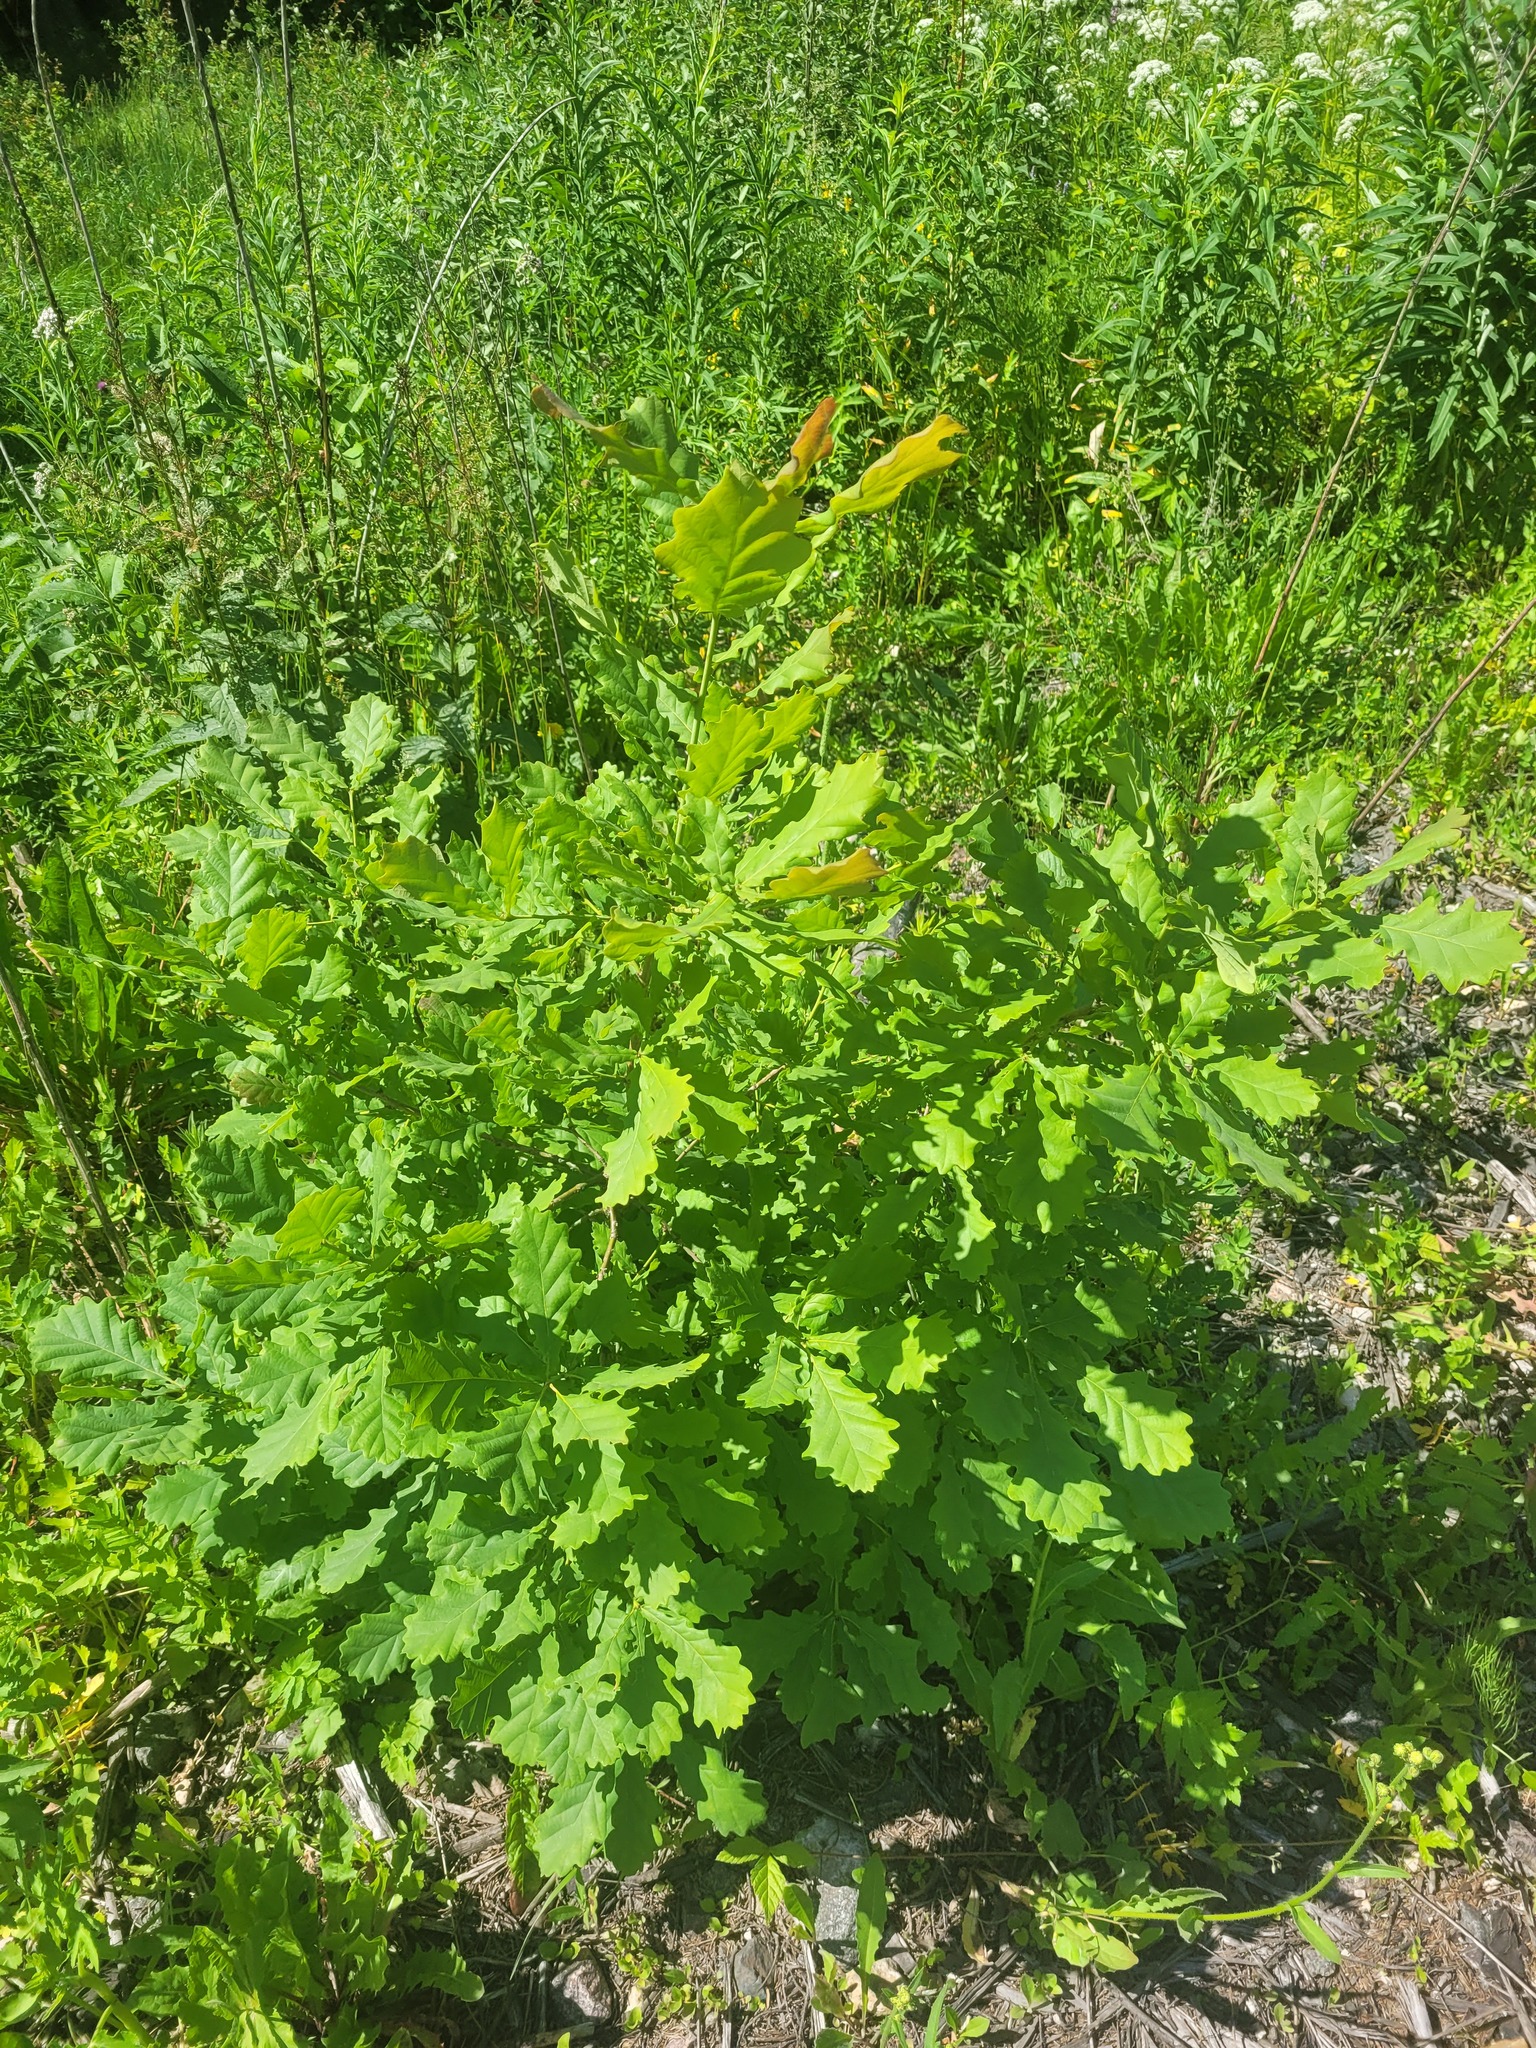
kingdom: Plantae
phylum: Tracheophyta
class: Magnoliopsida
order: Fagales
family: Fagaceae
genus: Quercus
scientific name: Quercus robur
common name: Pedunculate oak
